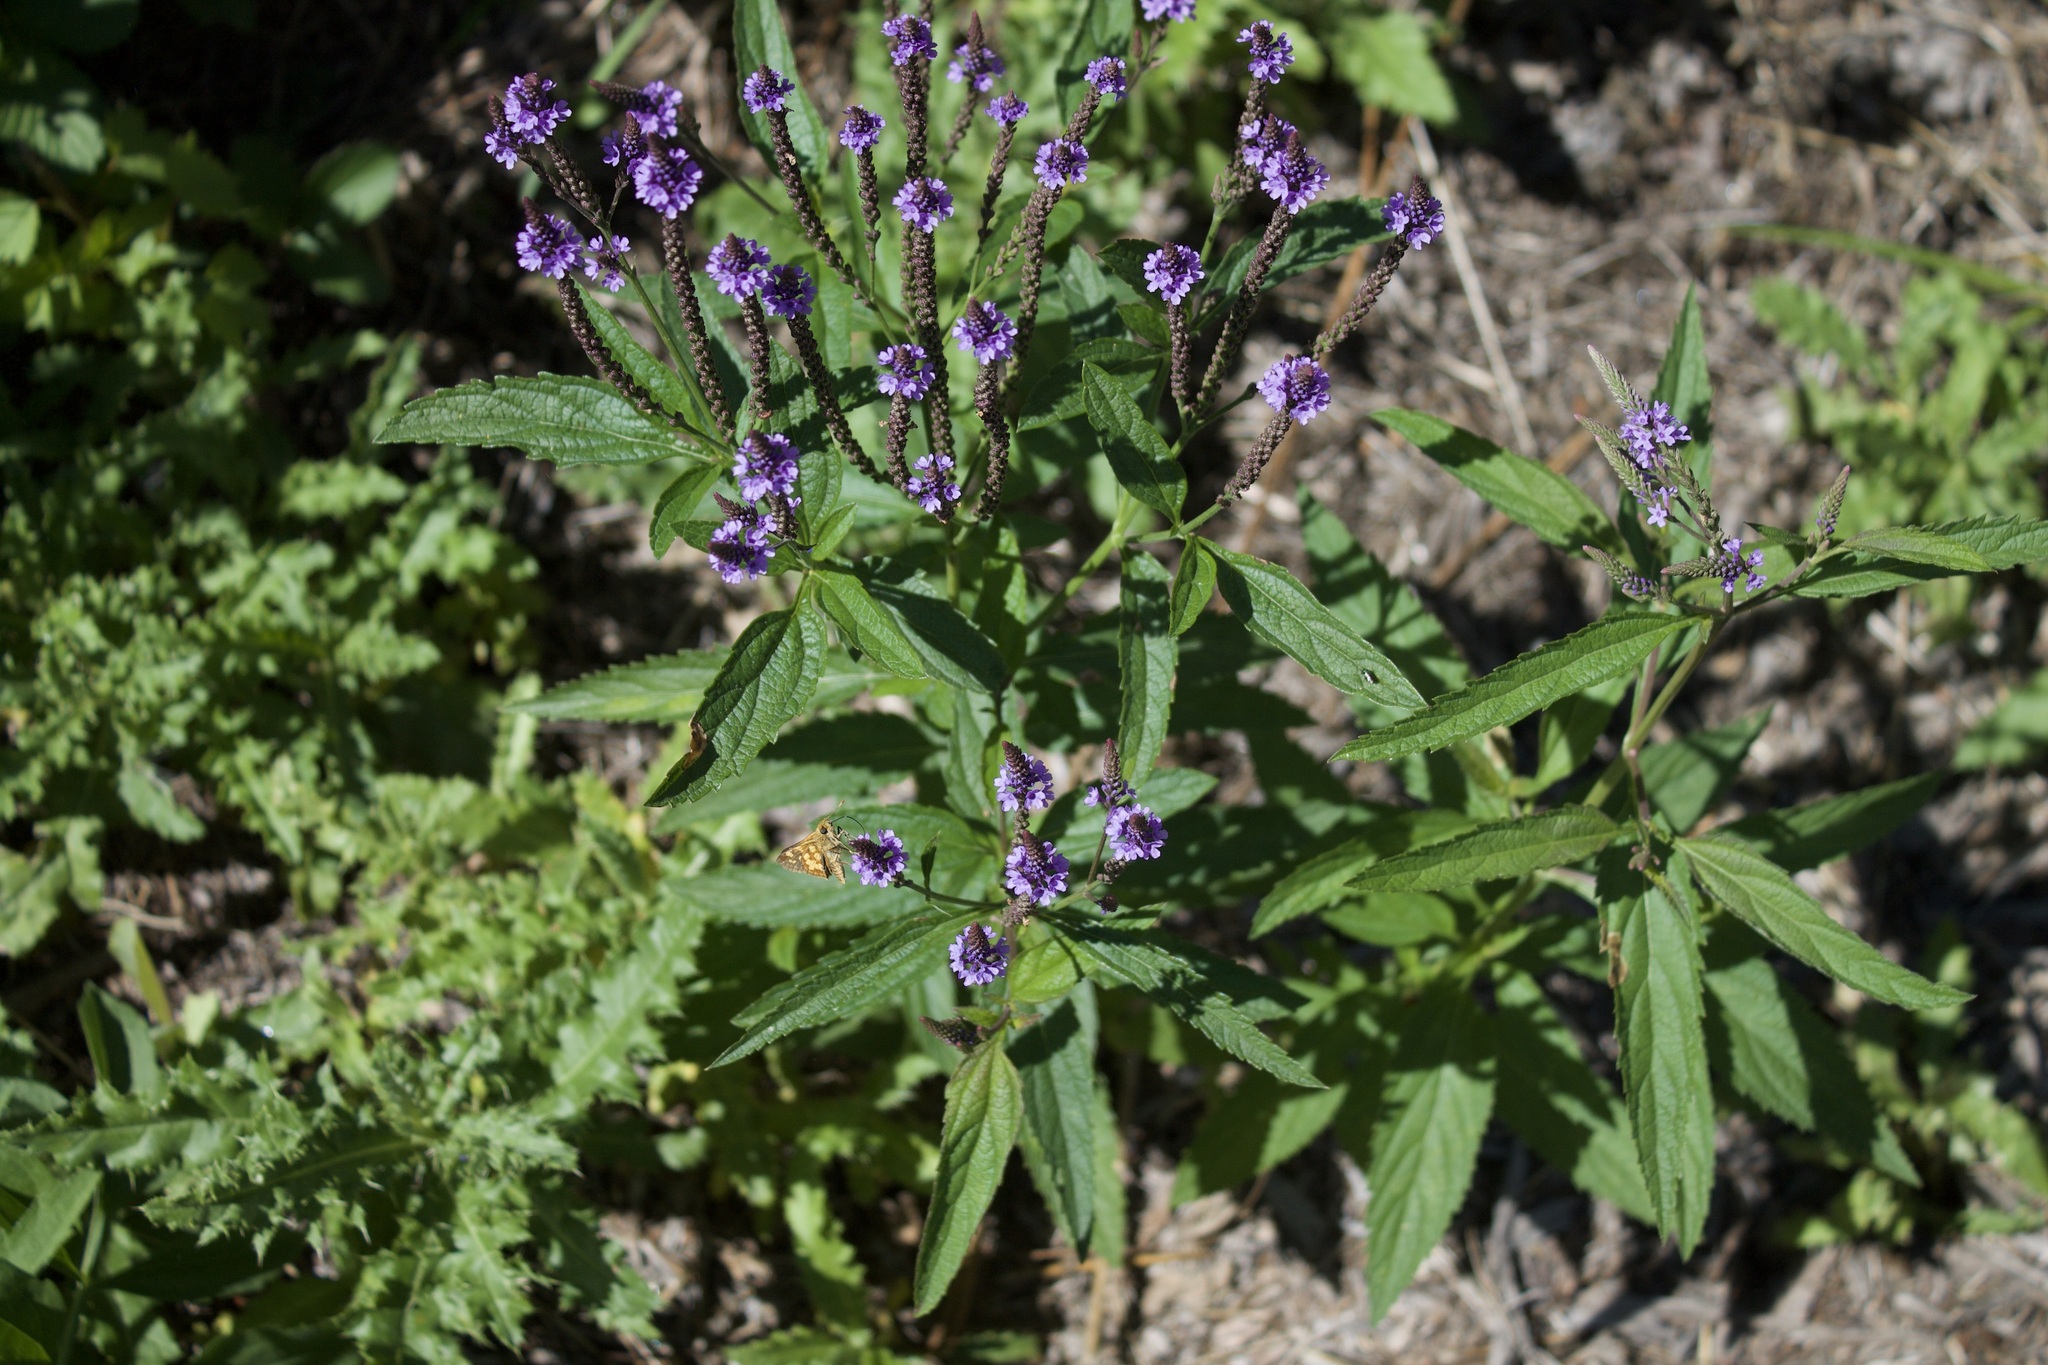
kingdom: Animalia
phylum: Arthropoda
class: Insecta
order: Lepidoptera
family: Hesperiidae
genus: Polites
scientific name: Polites coras
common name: Peck's skipper
